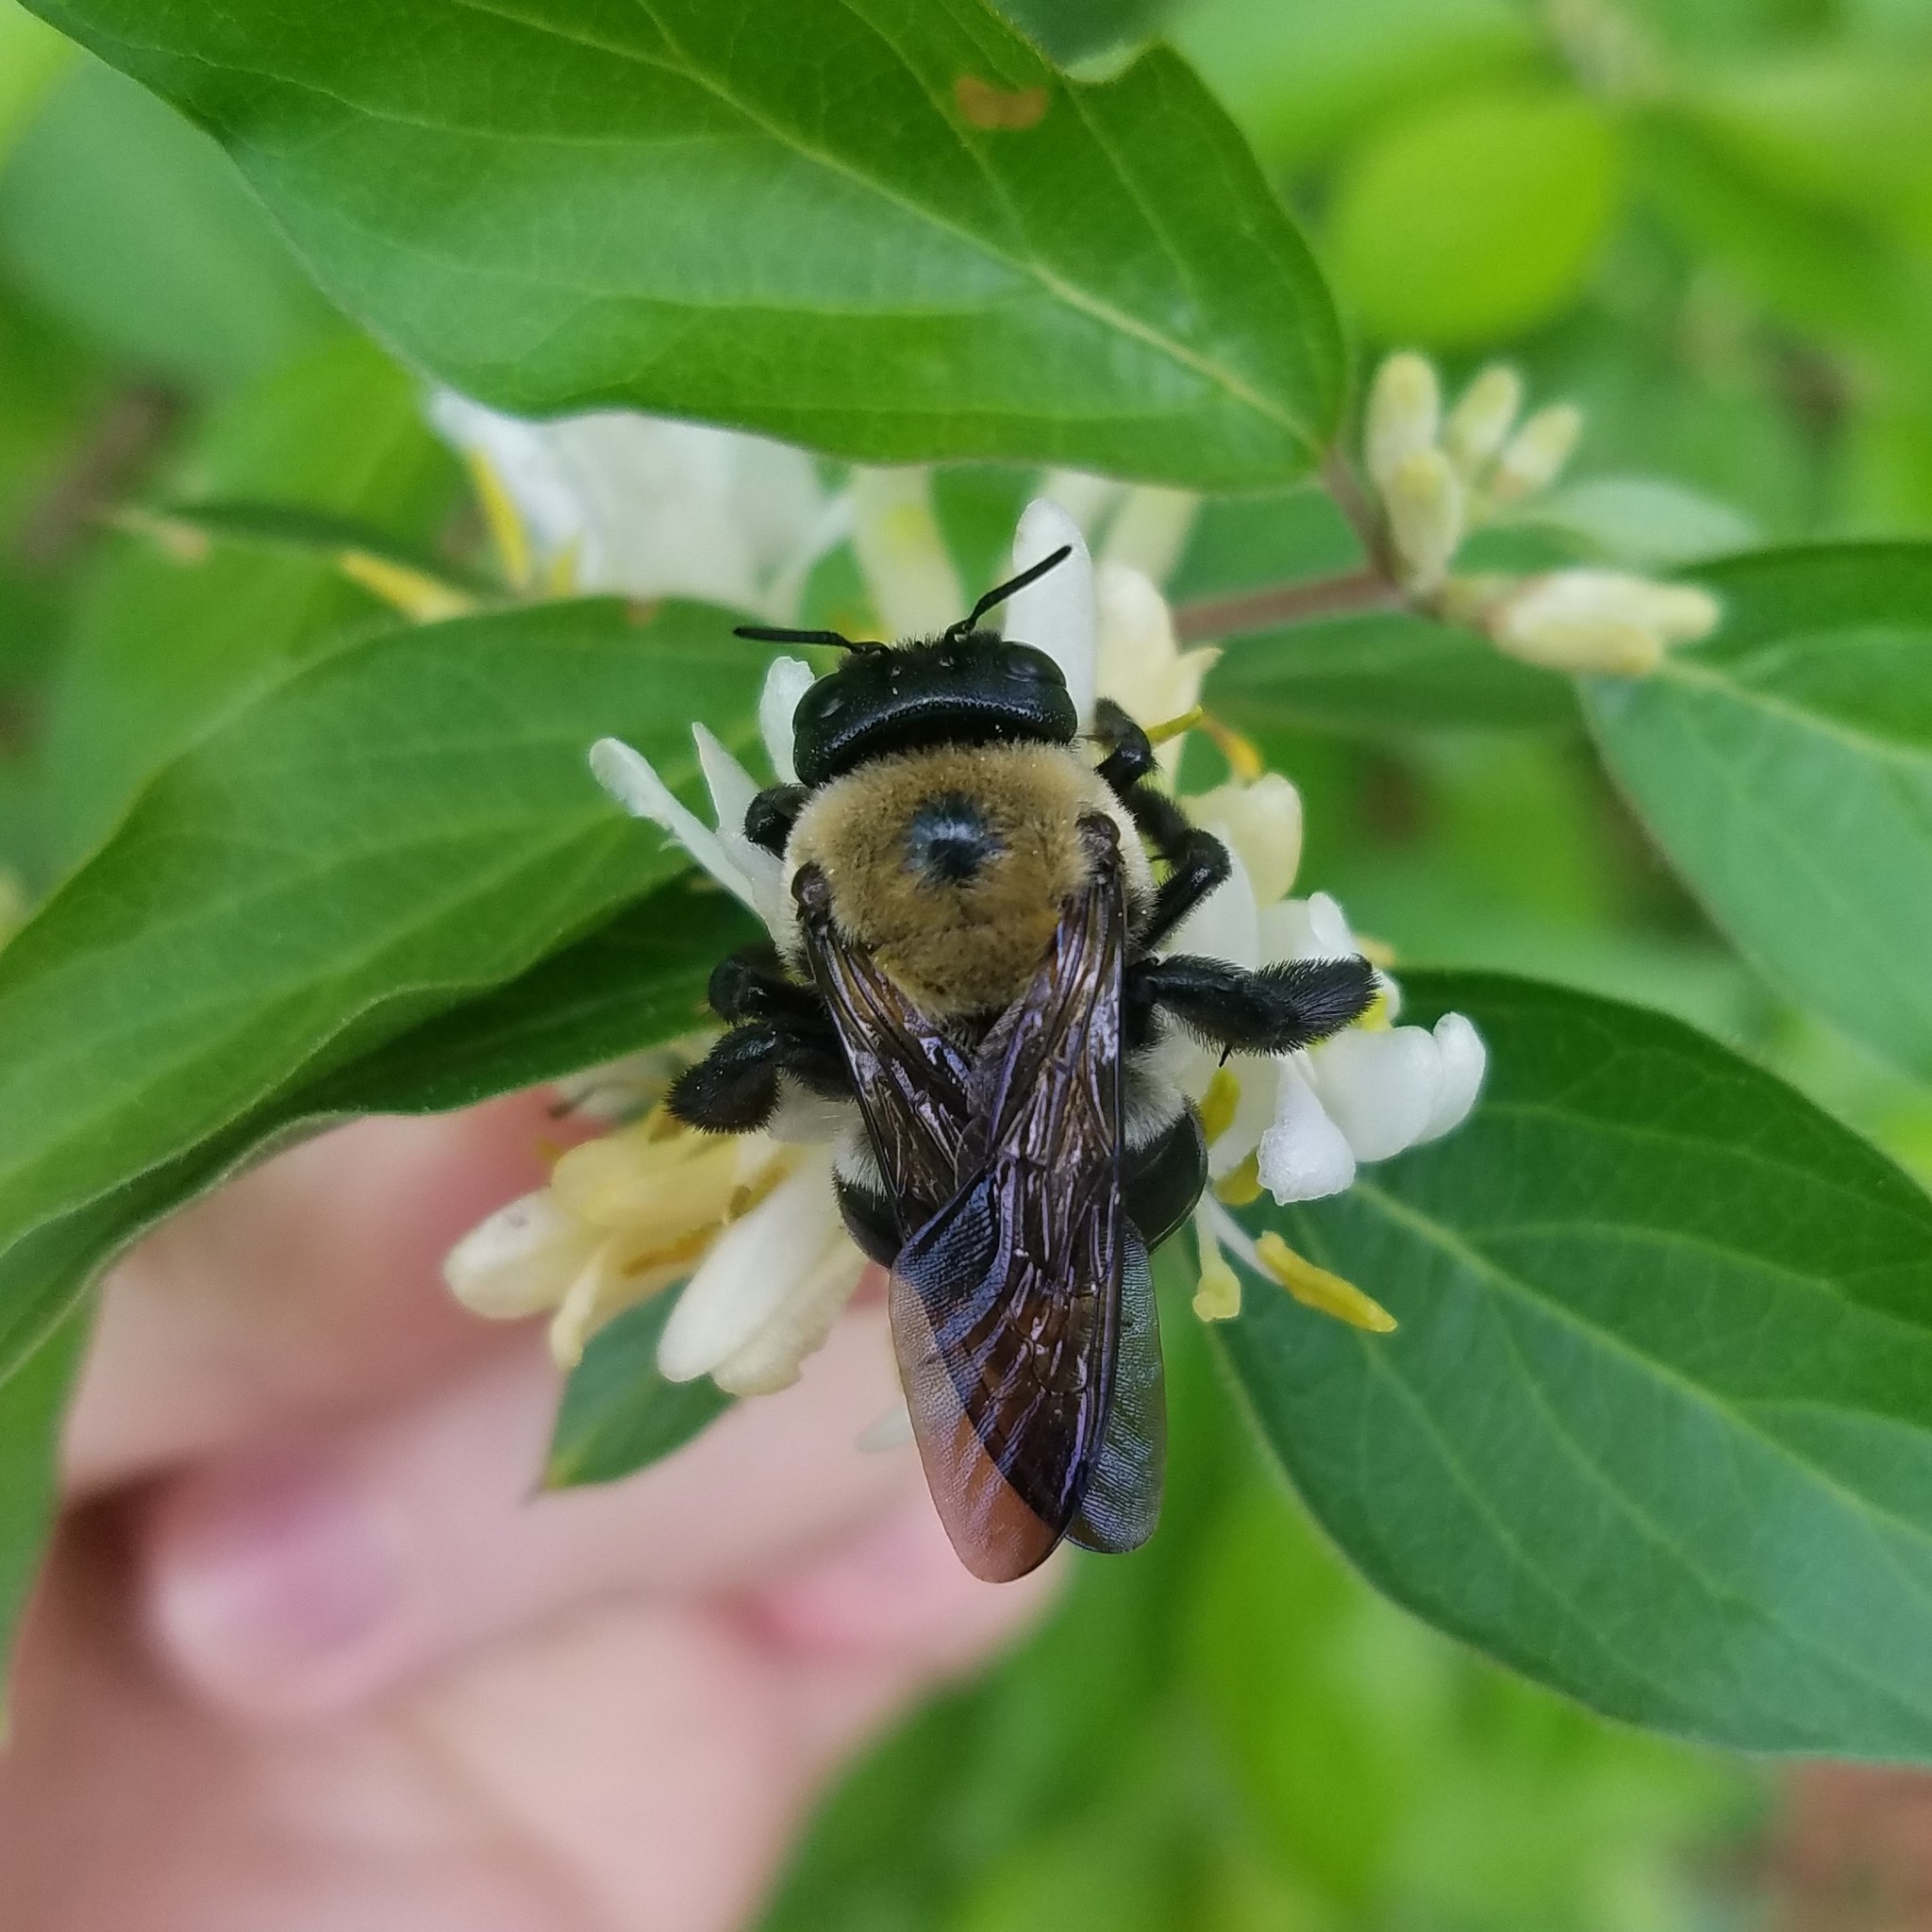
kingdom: Animalia
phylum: Arthropoda
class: Insecta
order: Hymenoptera
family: Apidae
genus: Xylocopa
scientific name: Xylocopa virginica
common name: Carpenter bee
